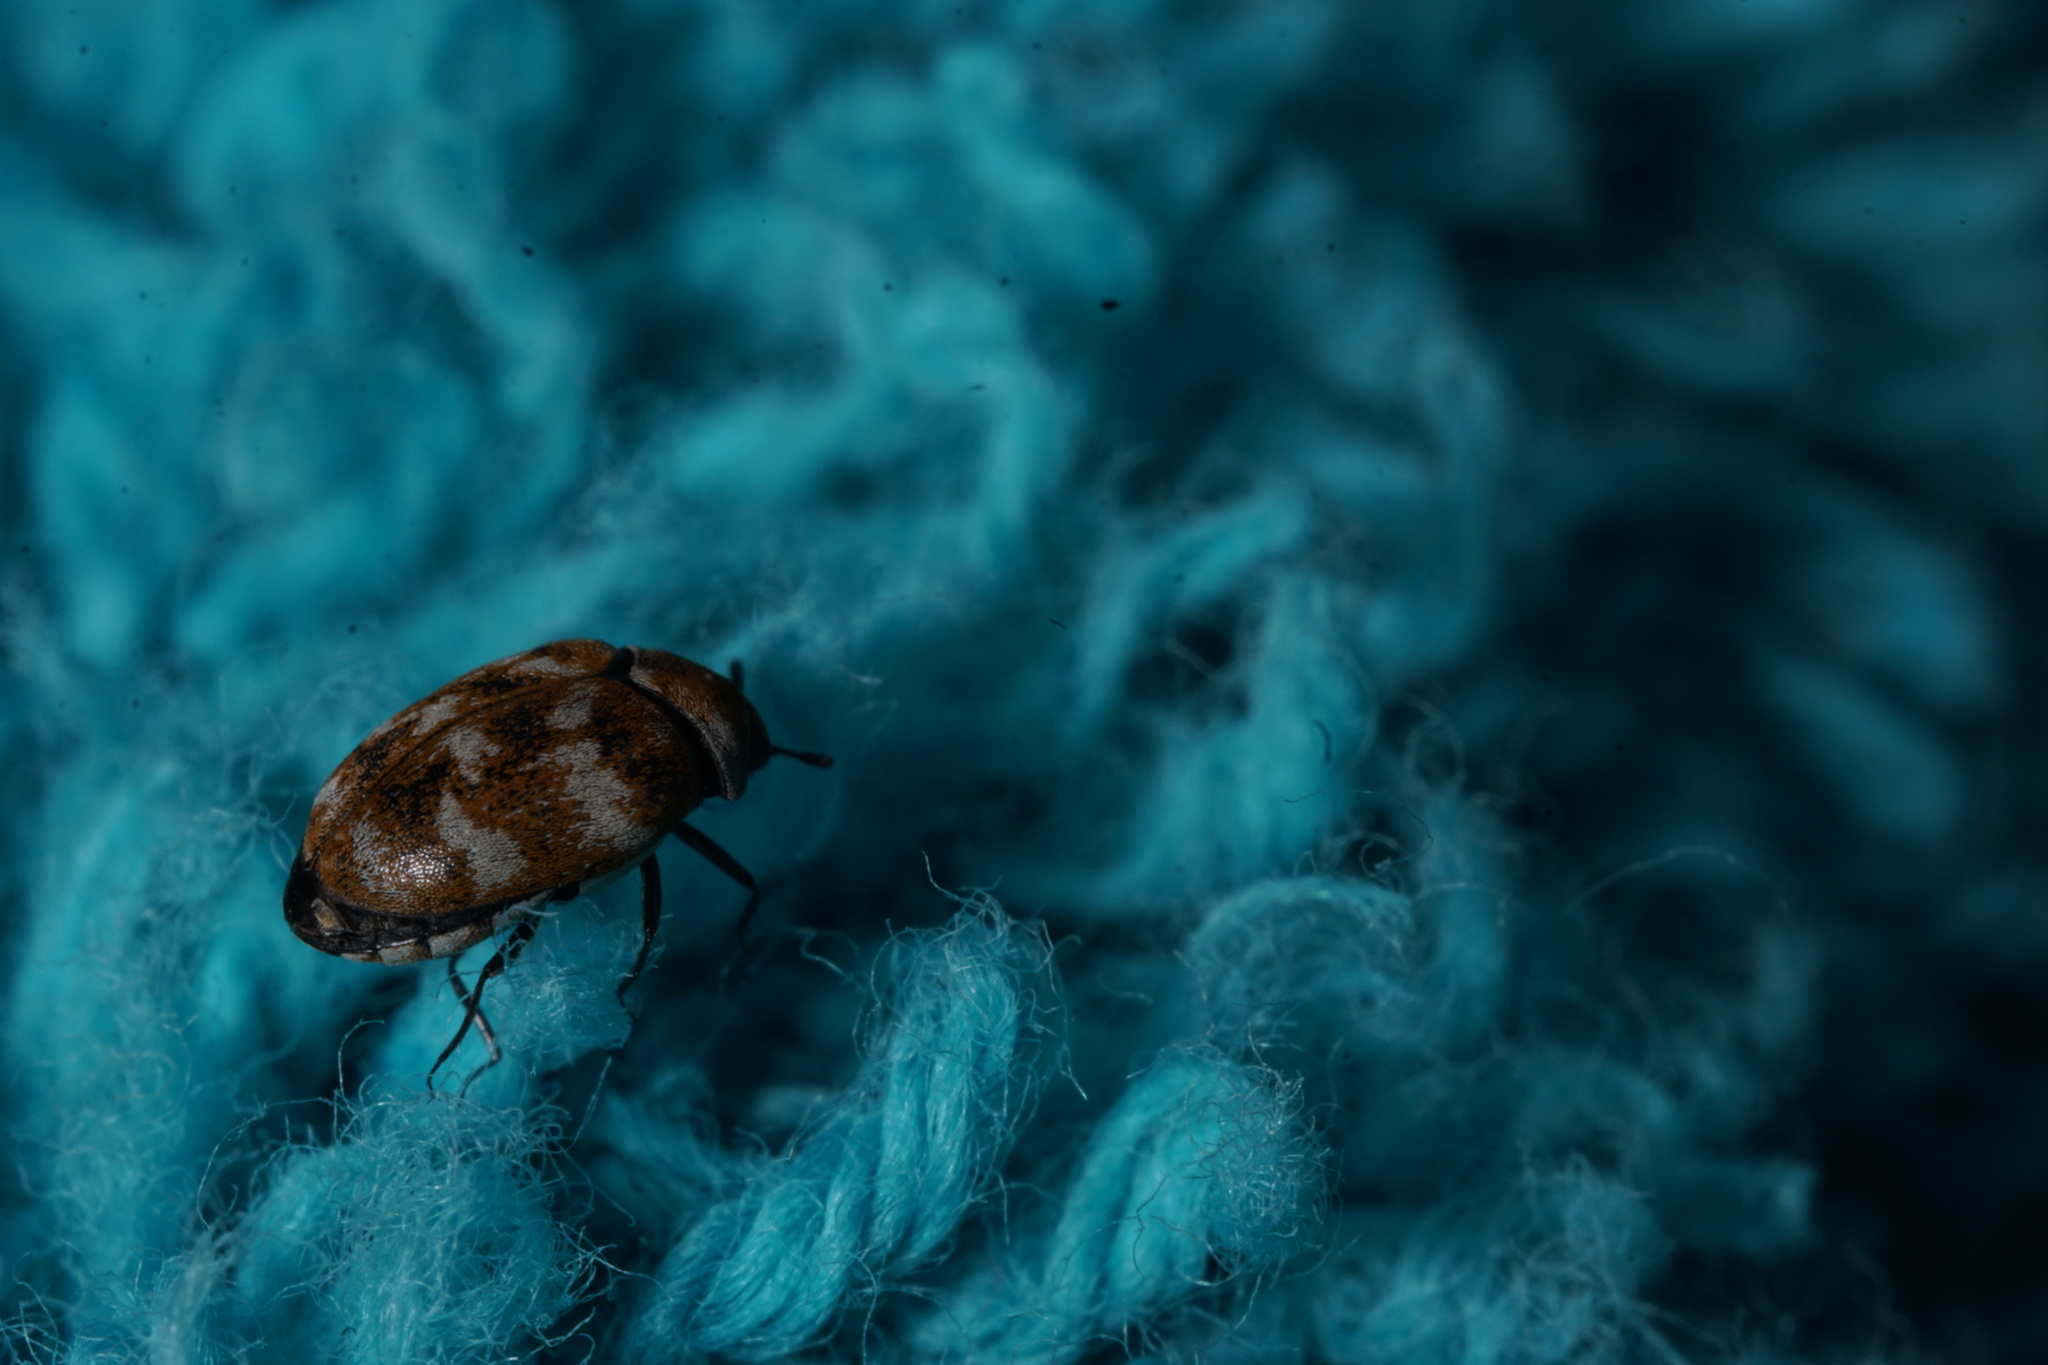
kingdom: Animalia
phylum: Arthropoda
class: Insecta
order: Coleoptera
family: Dermestidae
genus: Anthrenus
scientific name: Anthrenus verbasci
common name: Varied carpet beetle
